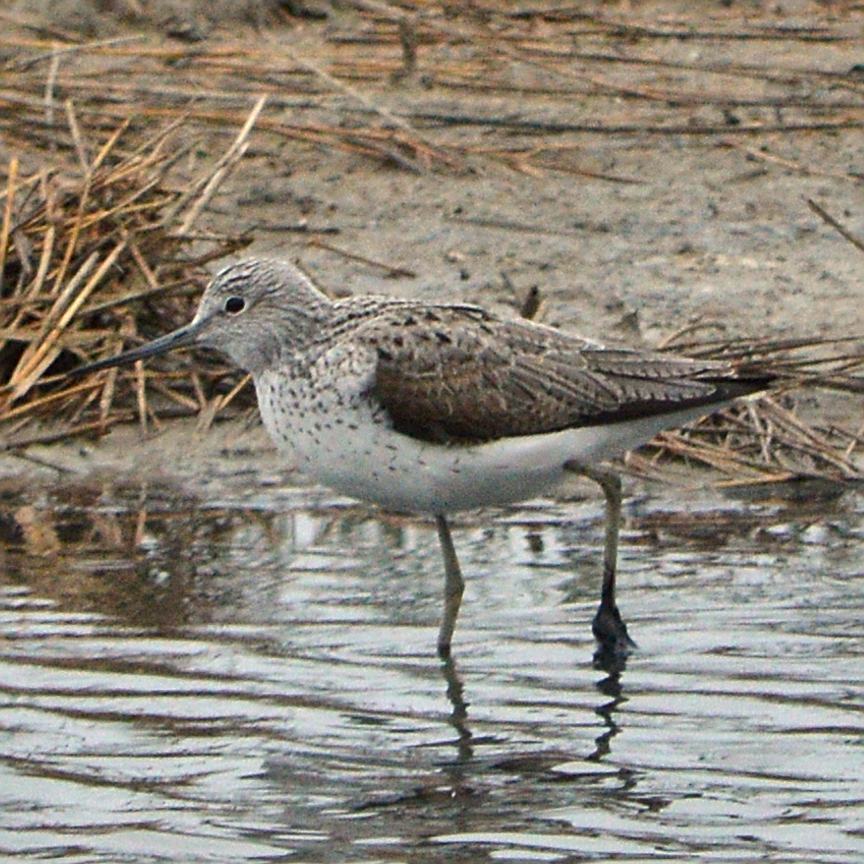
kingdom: Animalia
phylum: Chordata
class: Aves
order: Charadriiformes
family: Scolopacidae
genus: Tringa
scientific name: Tringa nebularia
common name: Common greenshank
